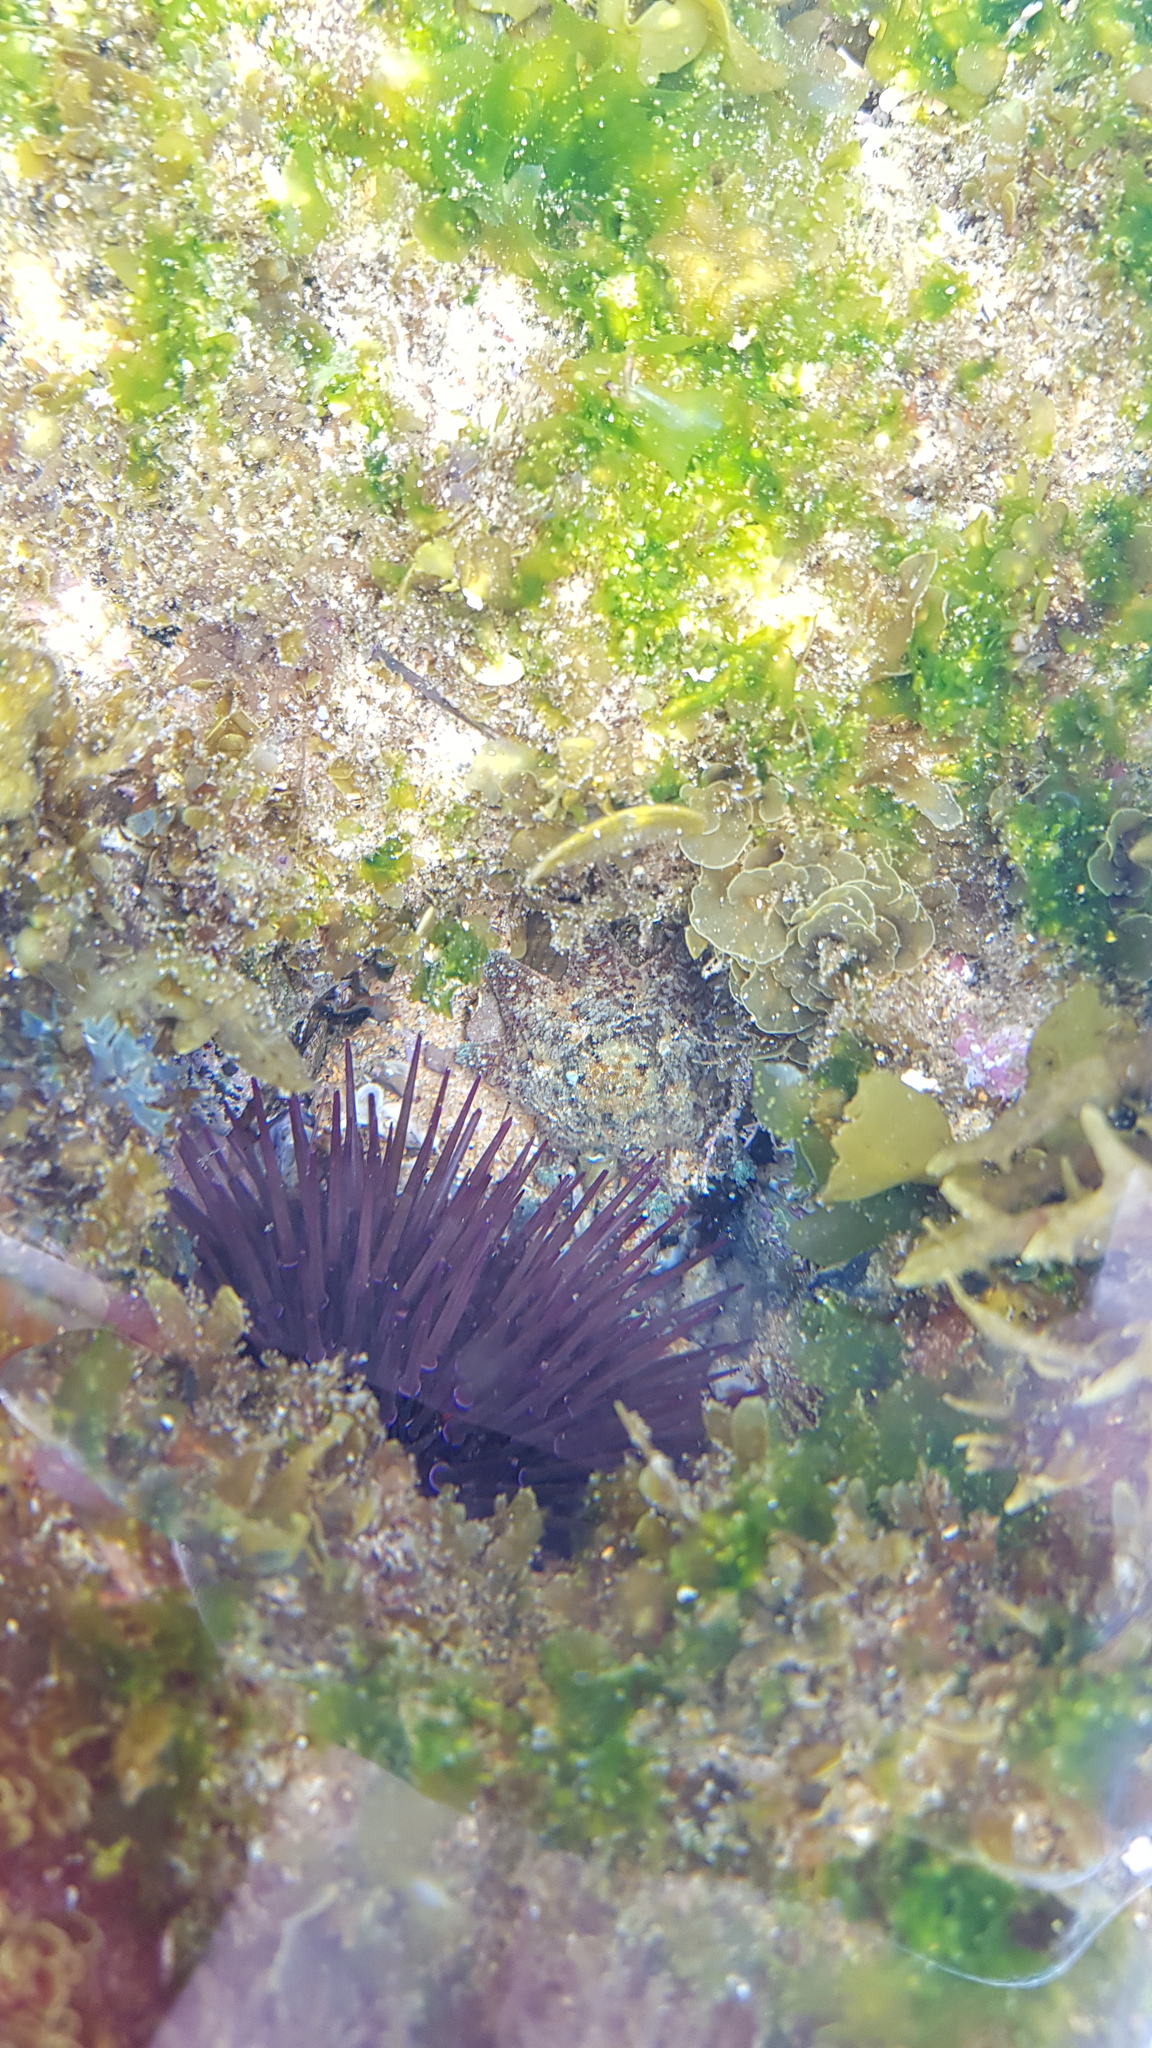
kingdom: Animalia
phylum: Echinodermata
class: Echinoidea
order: Camarodonta
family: Echinometridae
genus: Heliocidaris
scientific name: Heliocidaris erythrogramma
